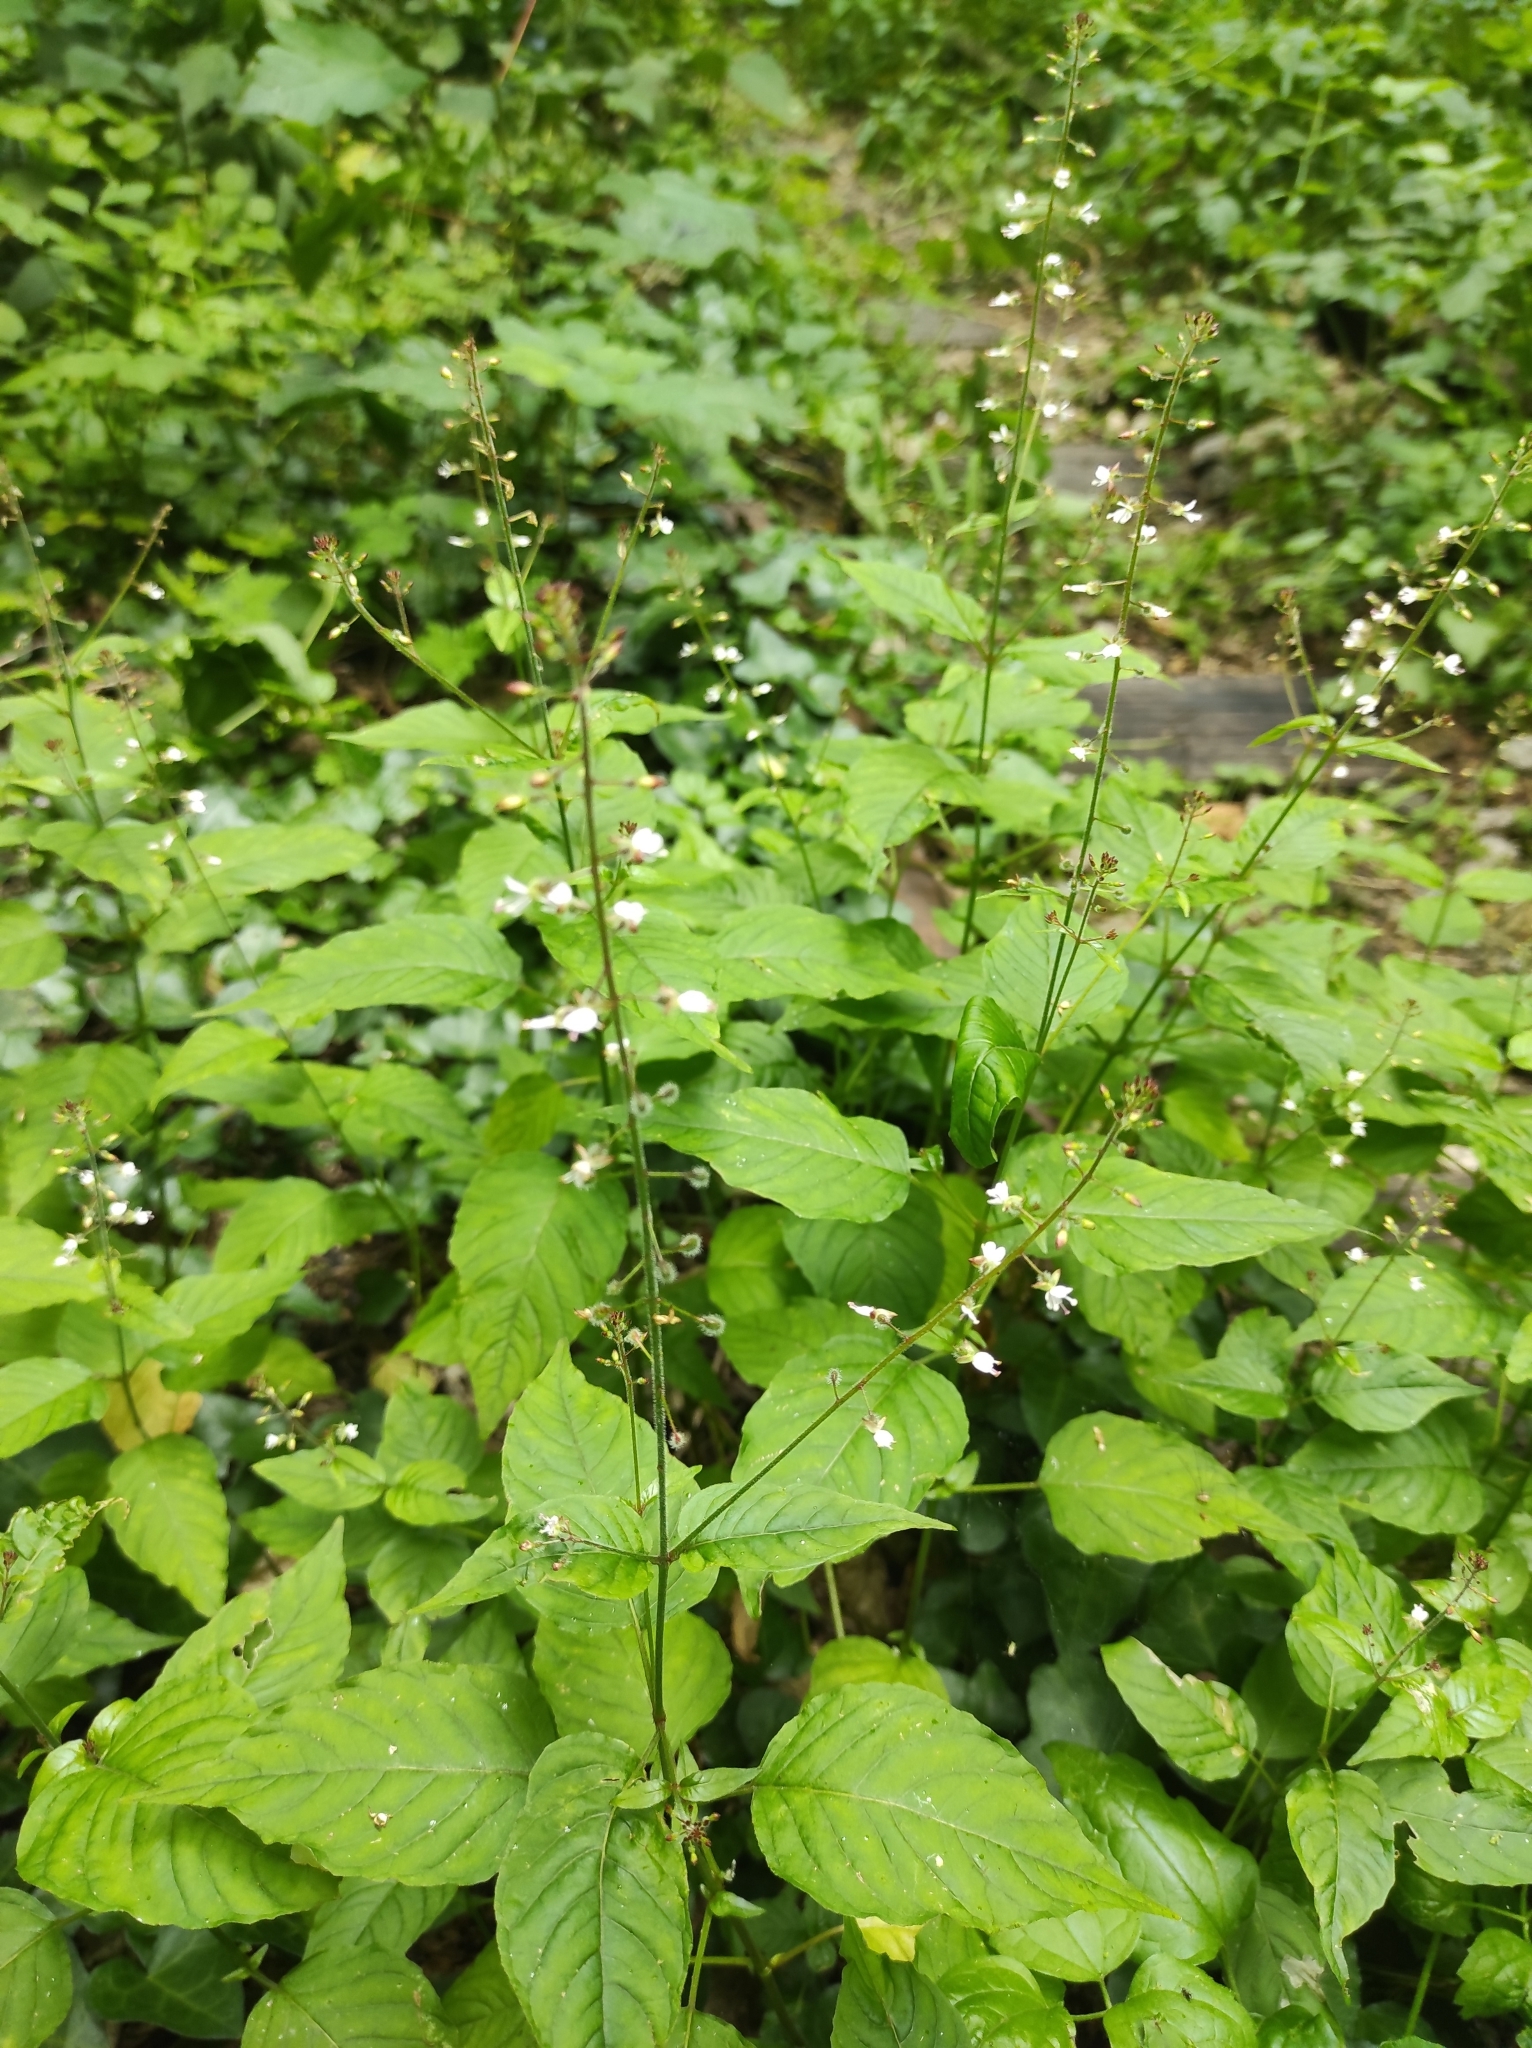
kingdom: Plantae
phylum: Tracheophyta
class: Magnoliopsida
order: Myrtales
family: Onagraceae
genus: Circaea
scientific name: Circaea lutetiana
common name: Enchanter's-nightshade
